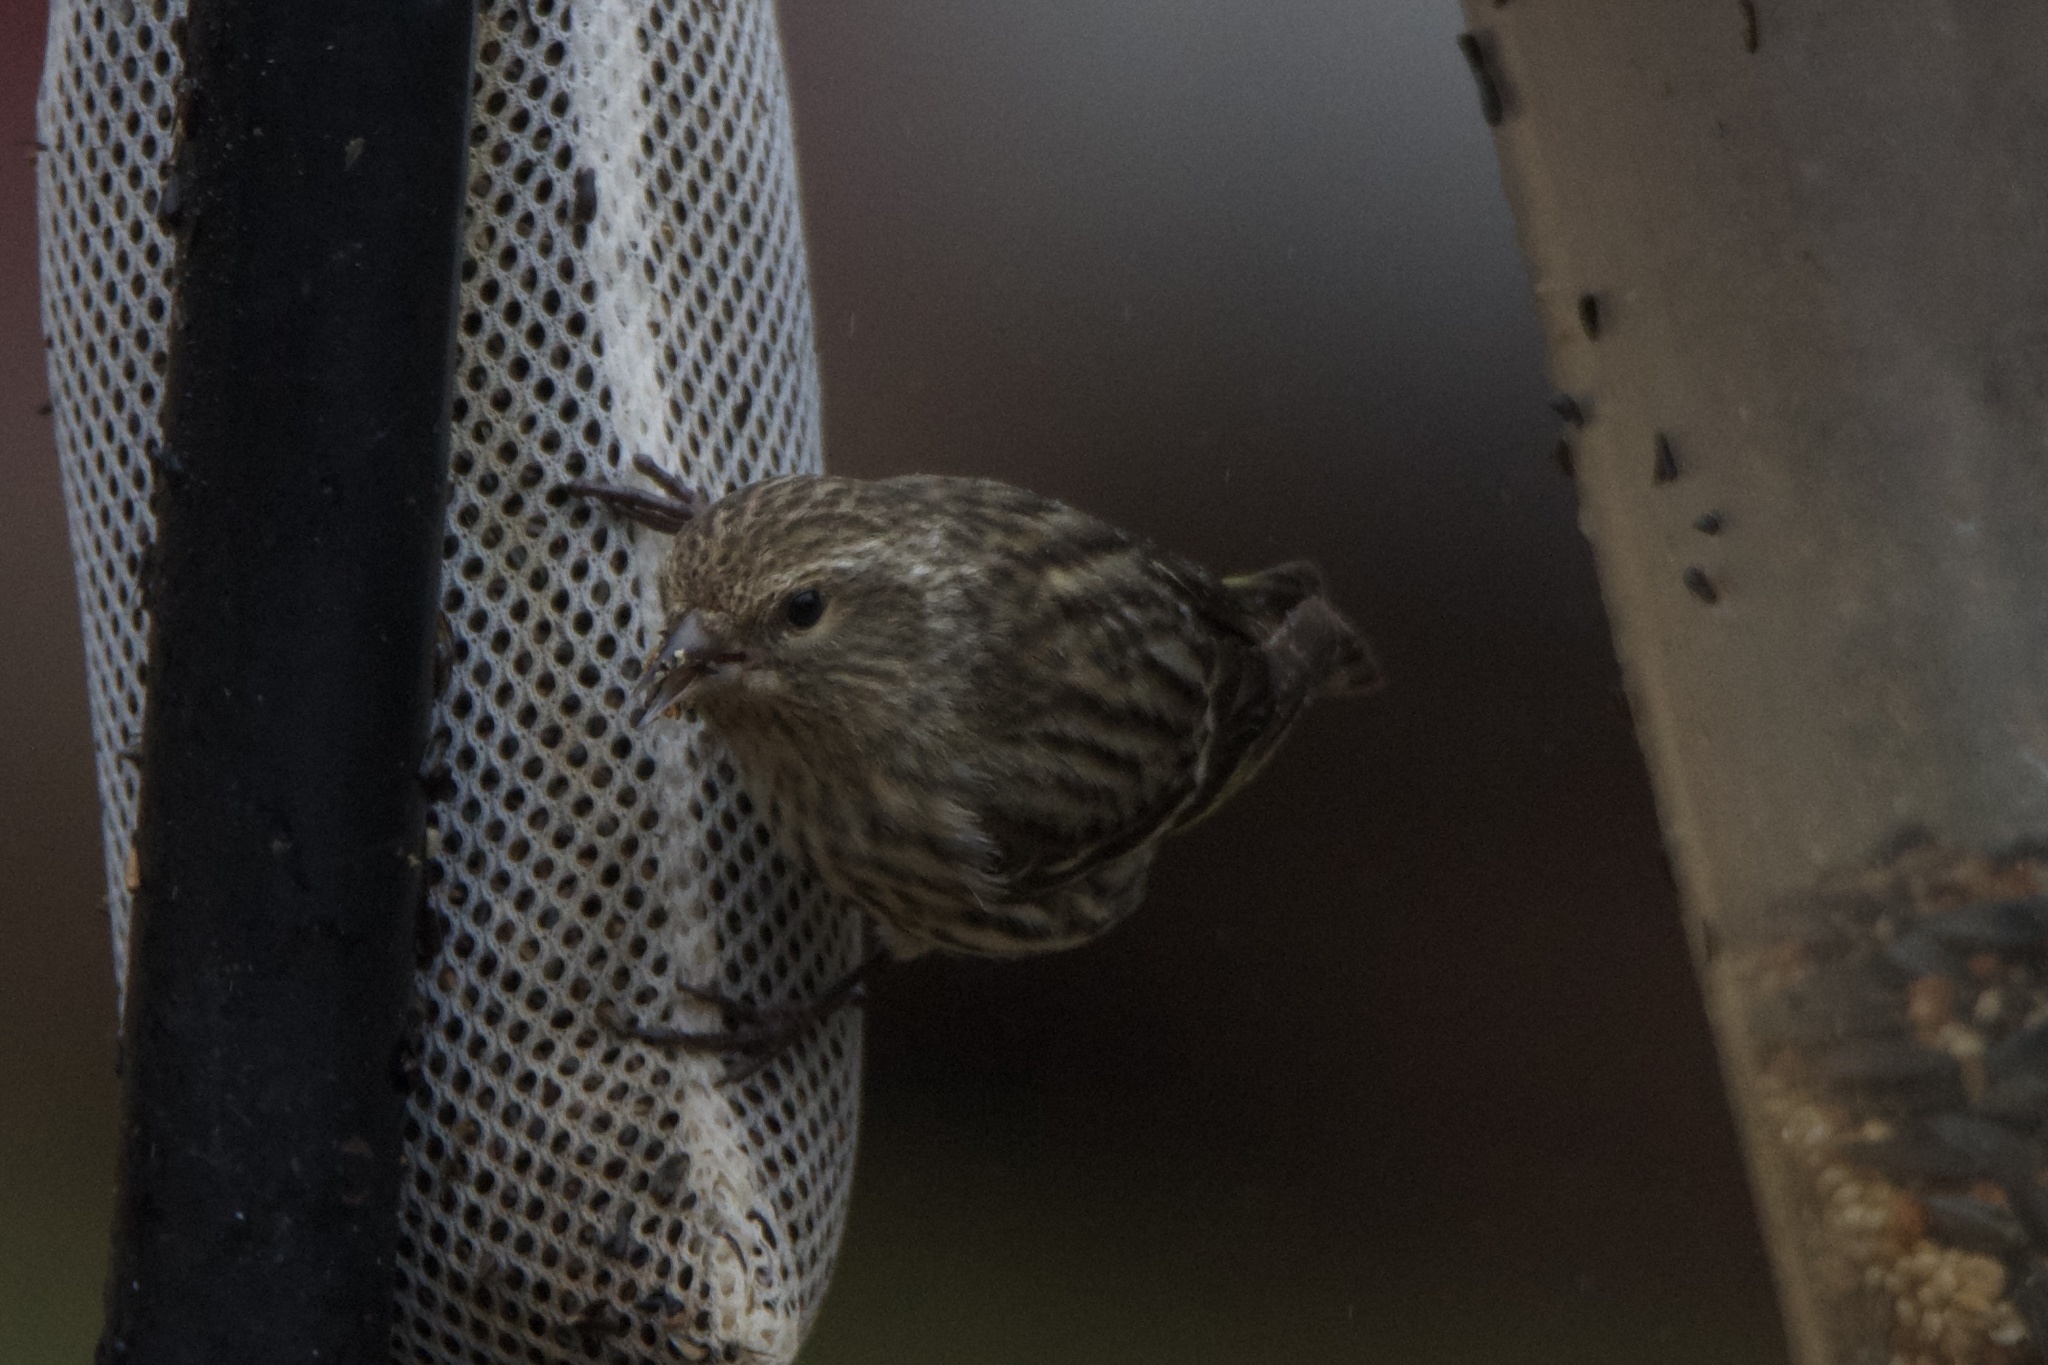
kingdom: Animalia
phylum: Chordata
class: Aves
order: Passeriformes
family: Fringillidae
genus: Spinus
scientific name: Spinus pinus
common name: Pine siskin
